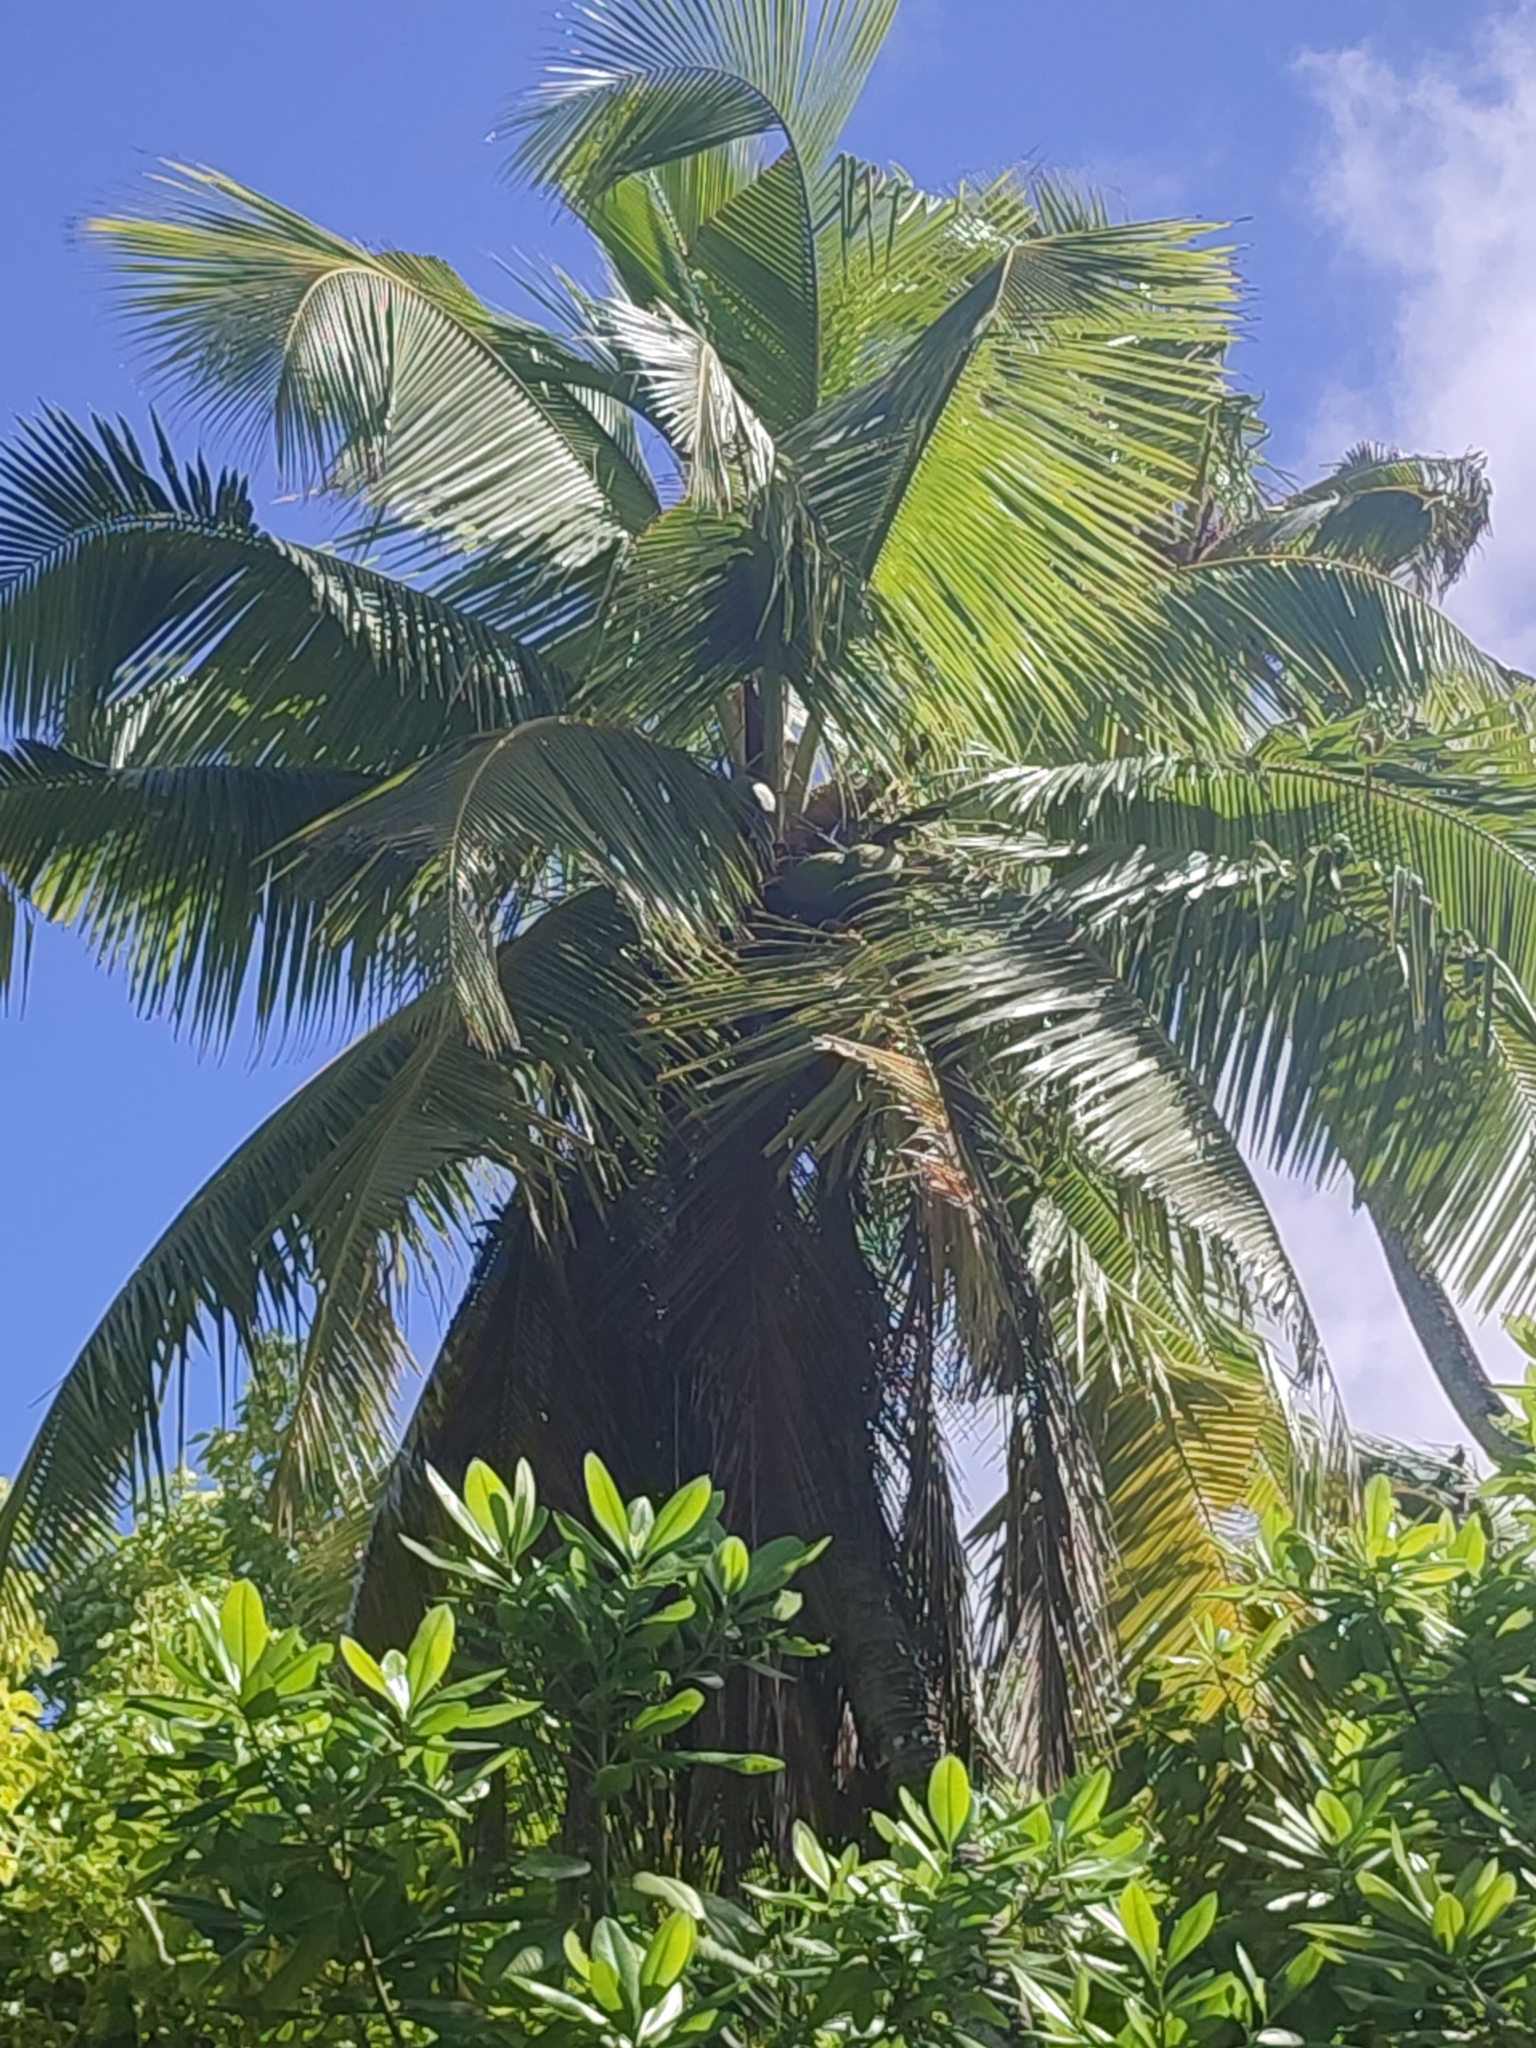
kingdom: Plantae
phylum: Tracheophyta
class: Liliopsida
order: Arecales
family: Arecaceae
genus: Cocos
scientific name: Cocos nucifera
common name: Coconut palm
